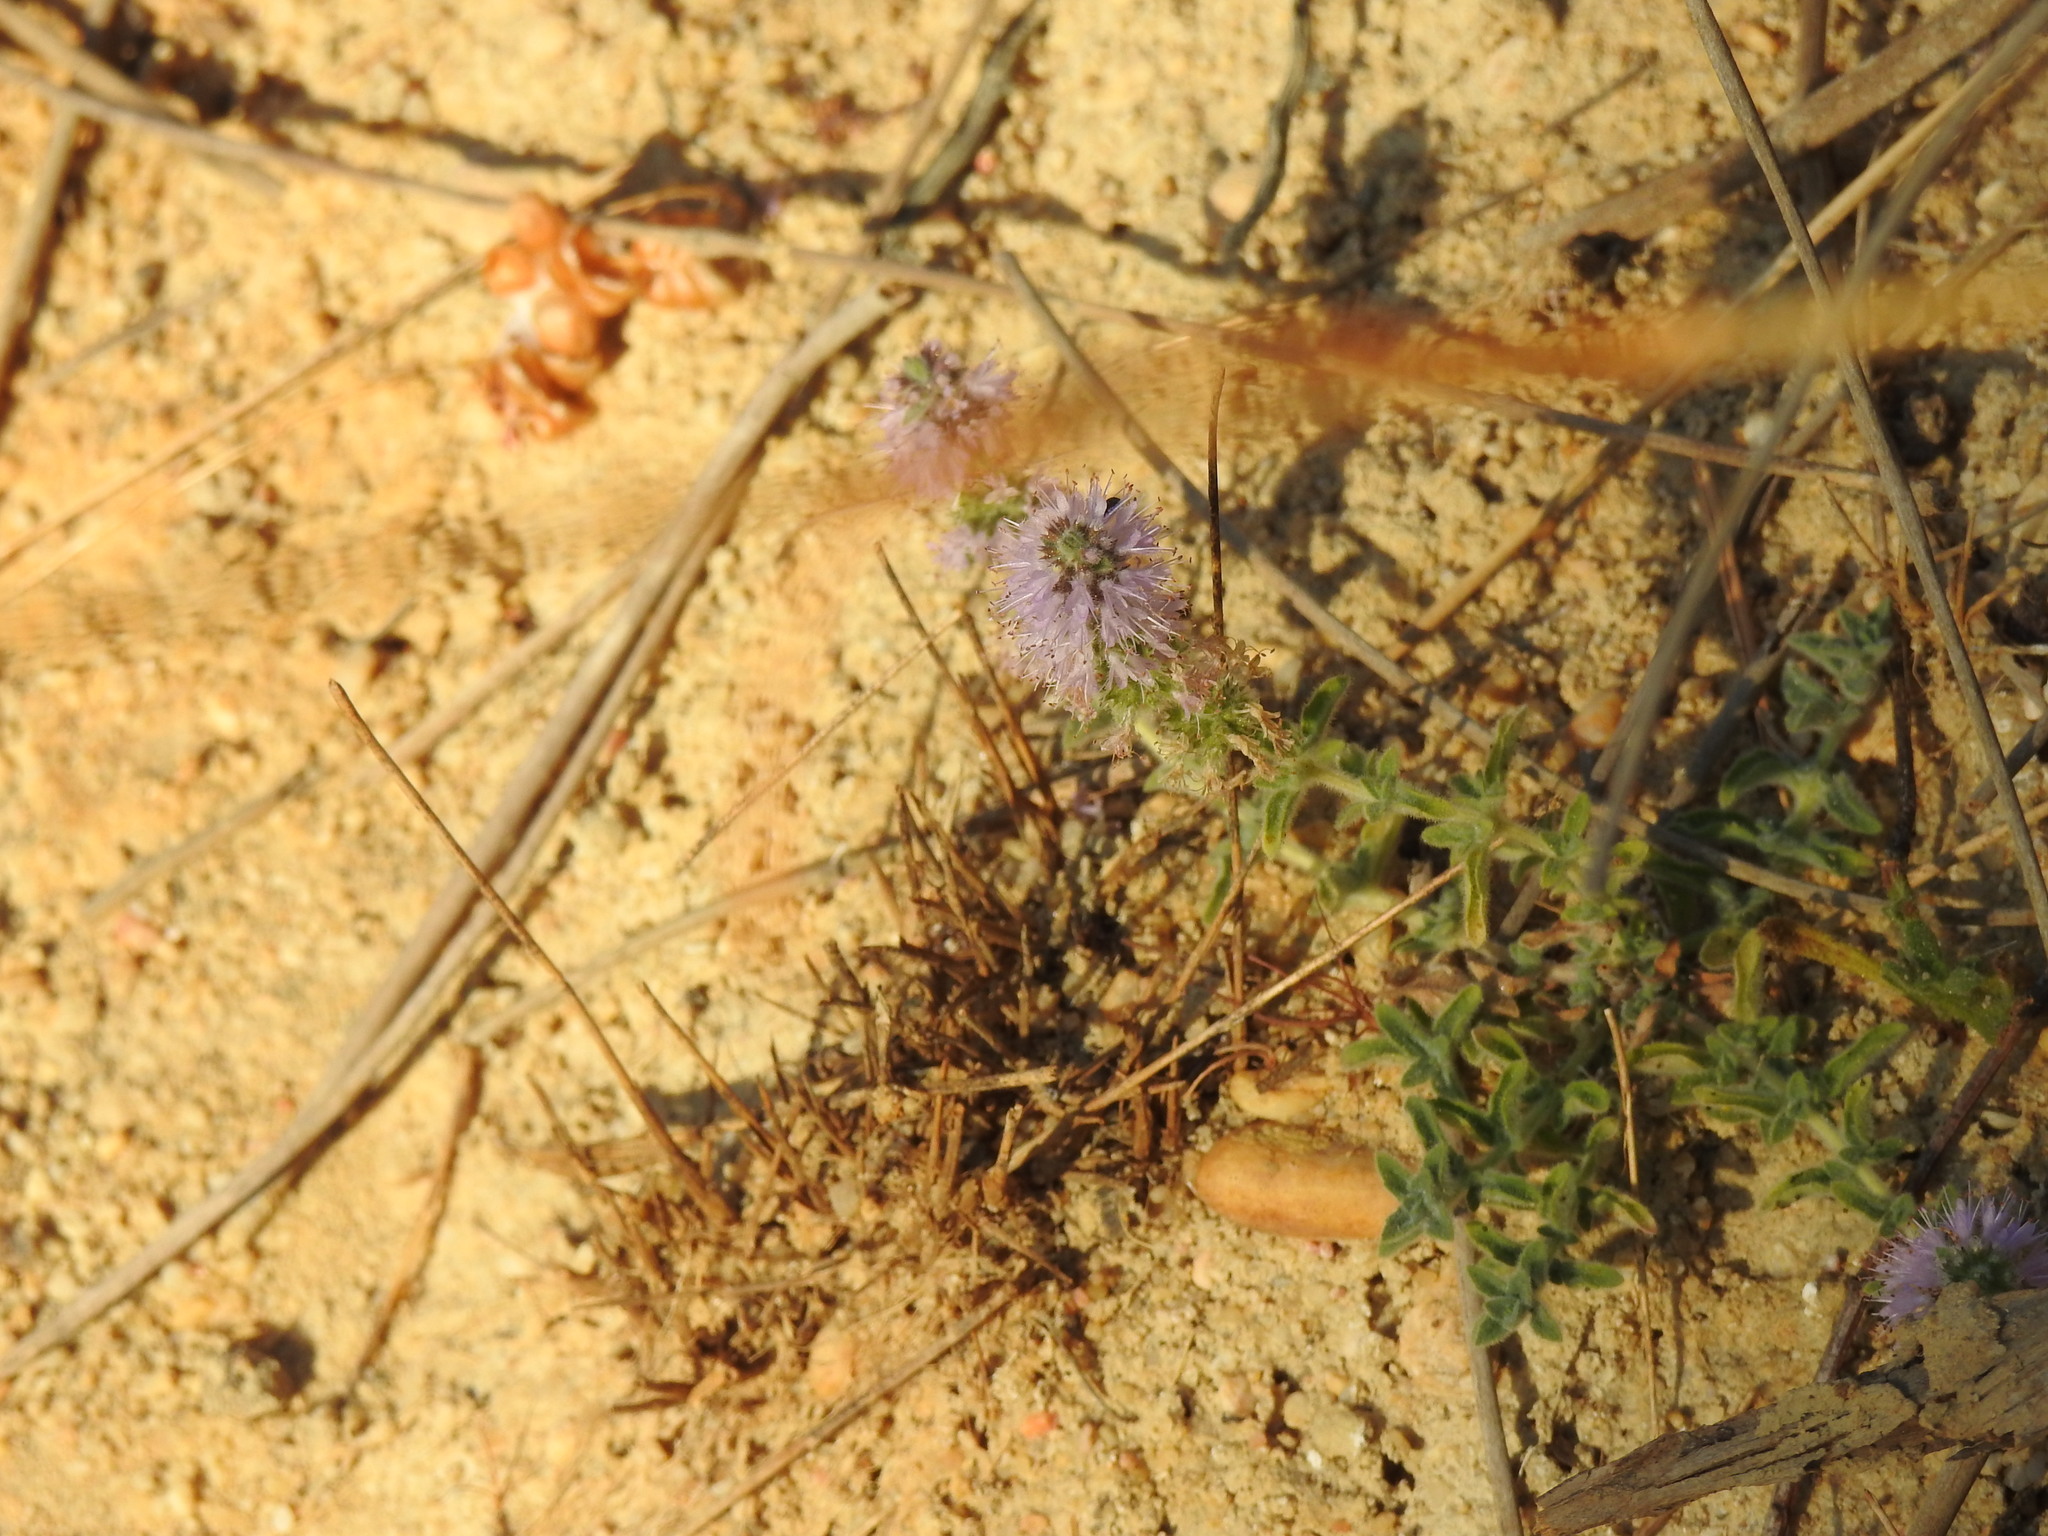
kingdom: Plantae
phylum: Tracheophyta
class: Magnoliopsida
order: Lamiales
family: Lamiaceae
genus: Mentha
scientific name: Mentha pulegium
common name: Pennyroyal
